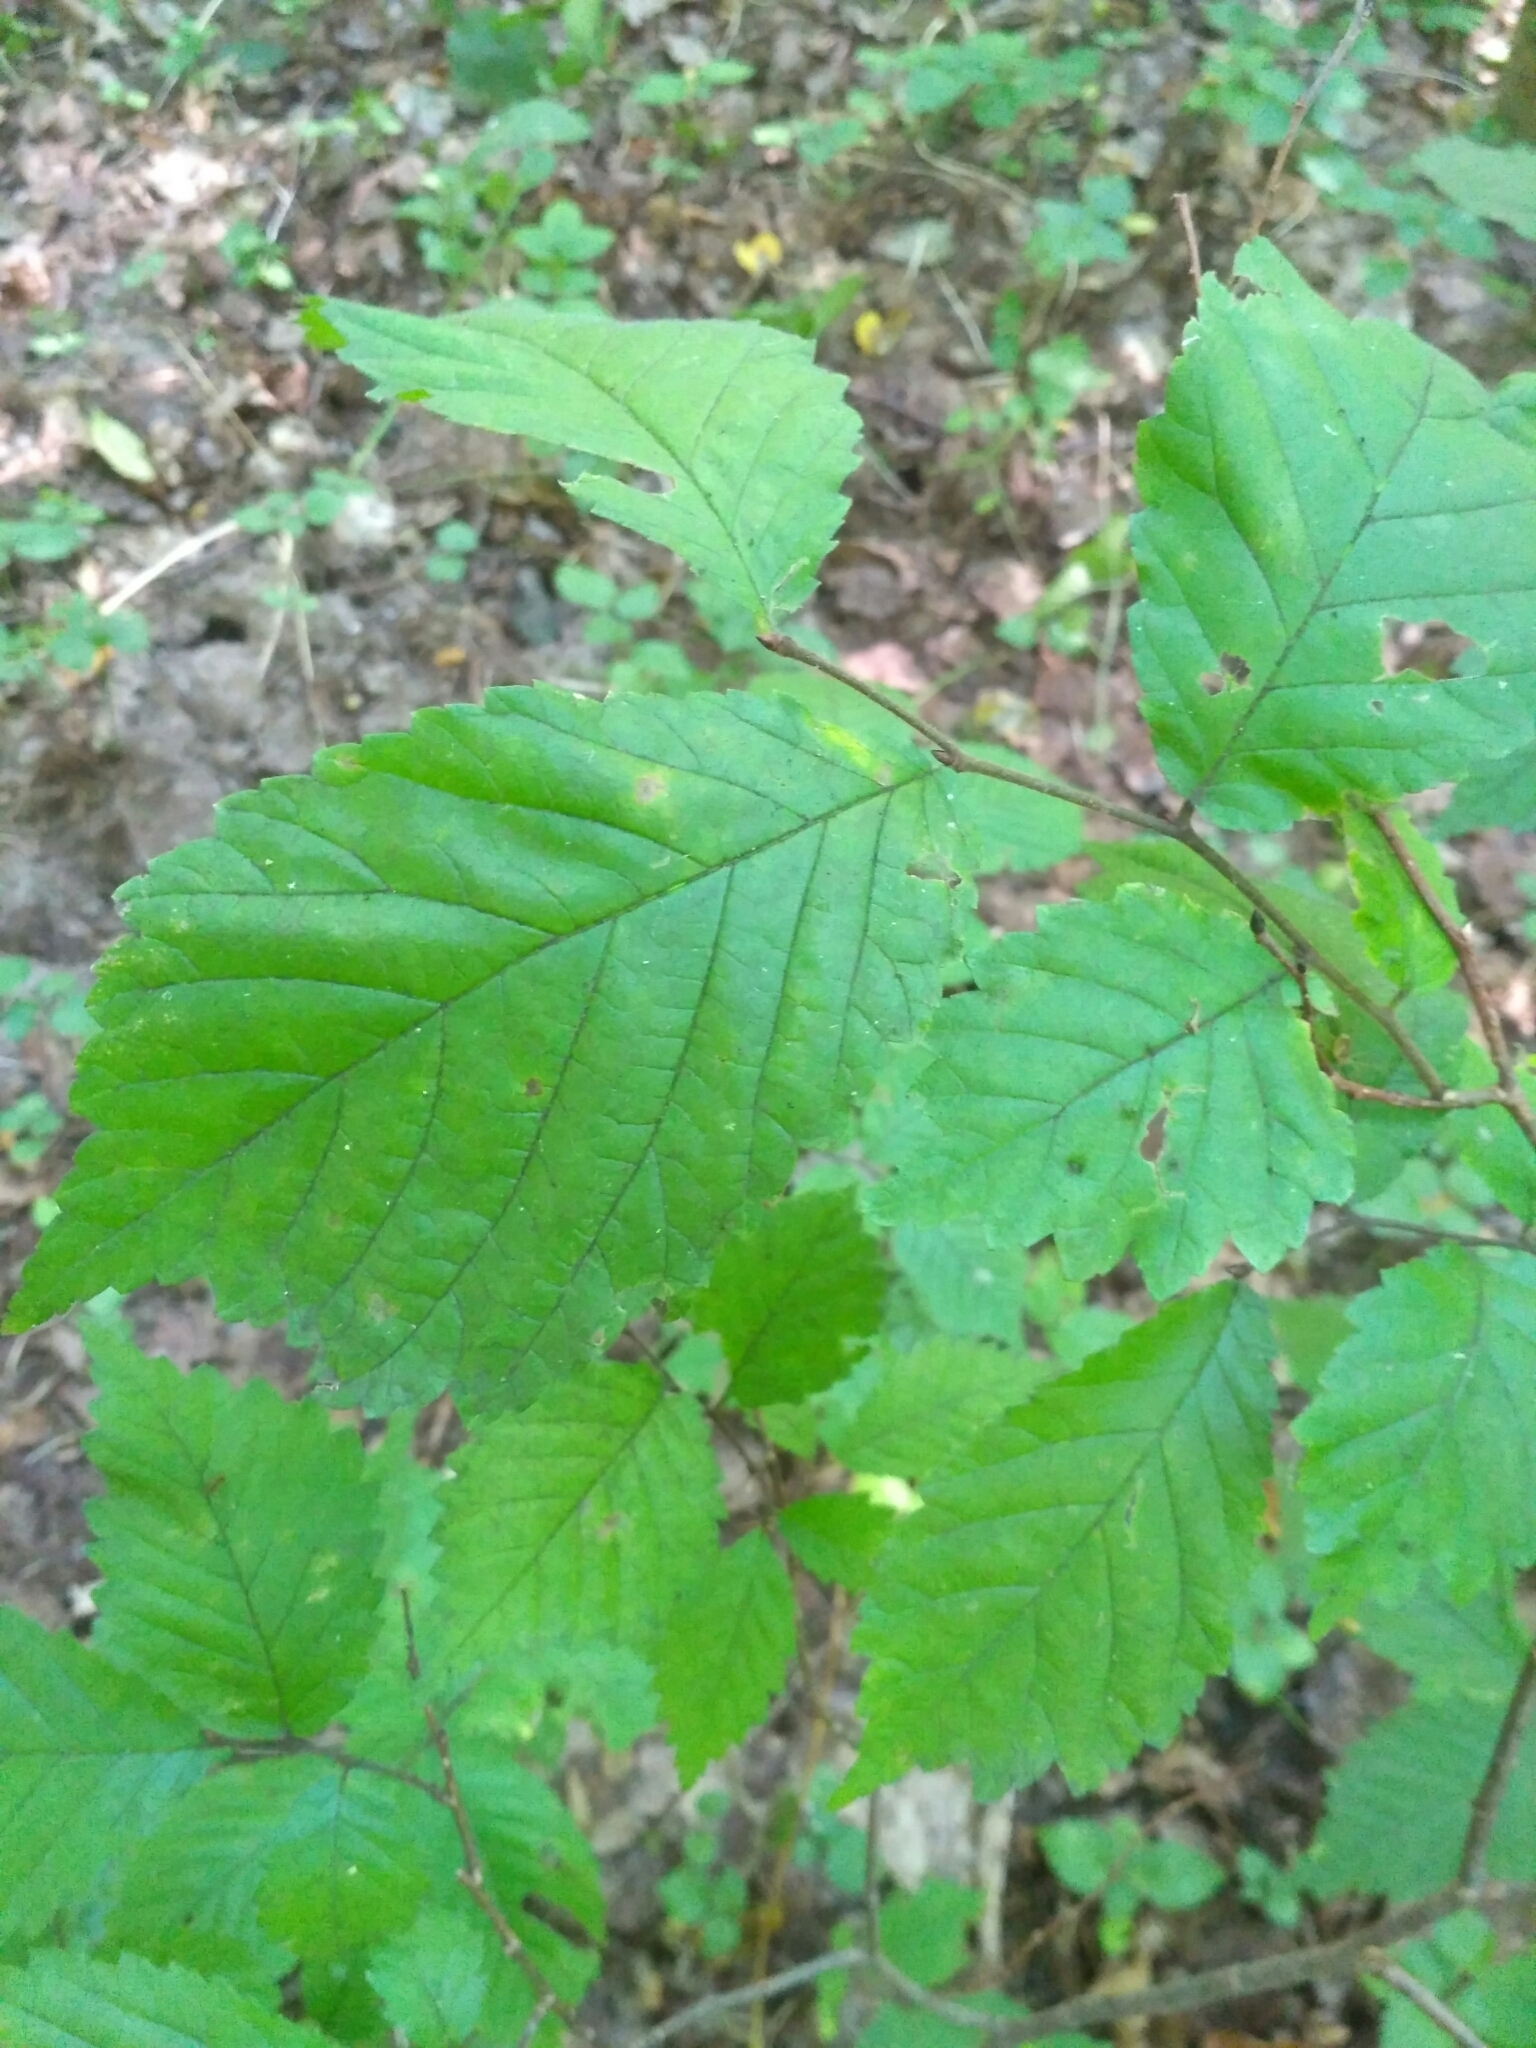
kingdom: Plantae
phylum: Tracheophyta
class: Magnoliopsida
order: Rosales
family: Ulmaceae
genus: Ulmus
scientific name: Ulmus glabra
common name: Wych elm
